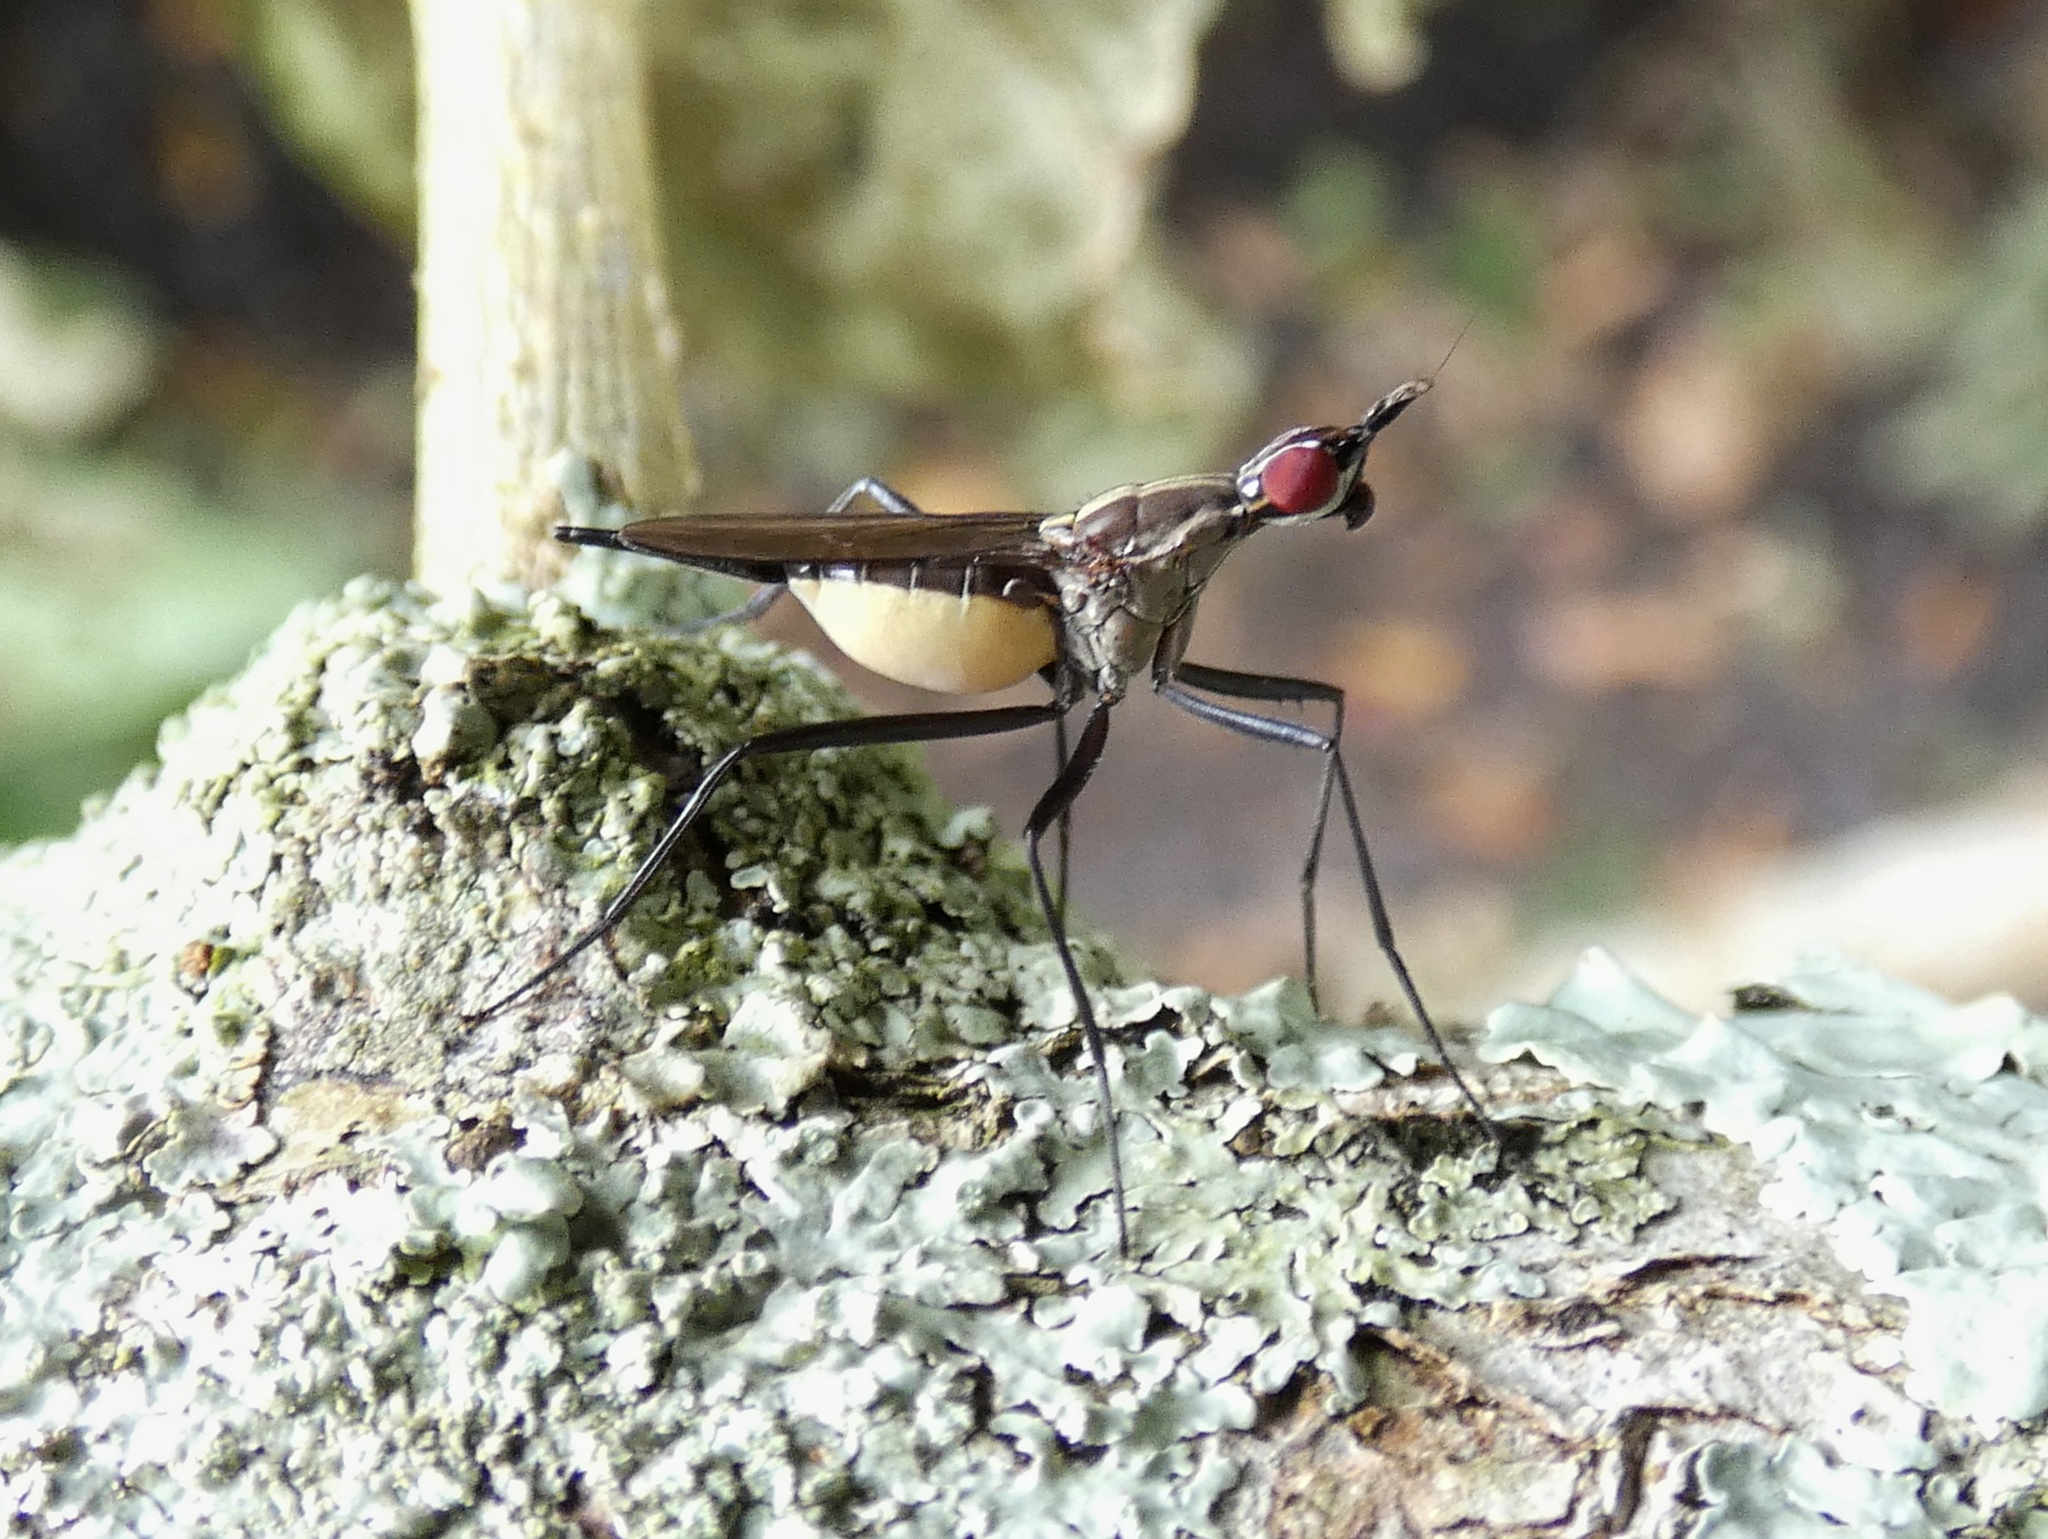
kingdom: Animalia
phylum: Arthropoda
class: Insecta
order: Diptera
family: Neriidae
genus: Nerius
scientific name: Nerius pilifer
